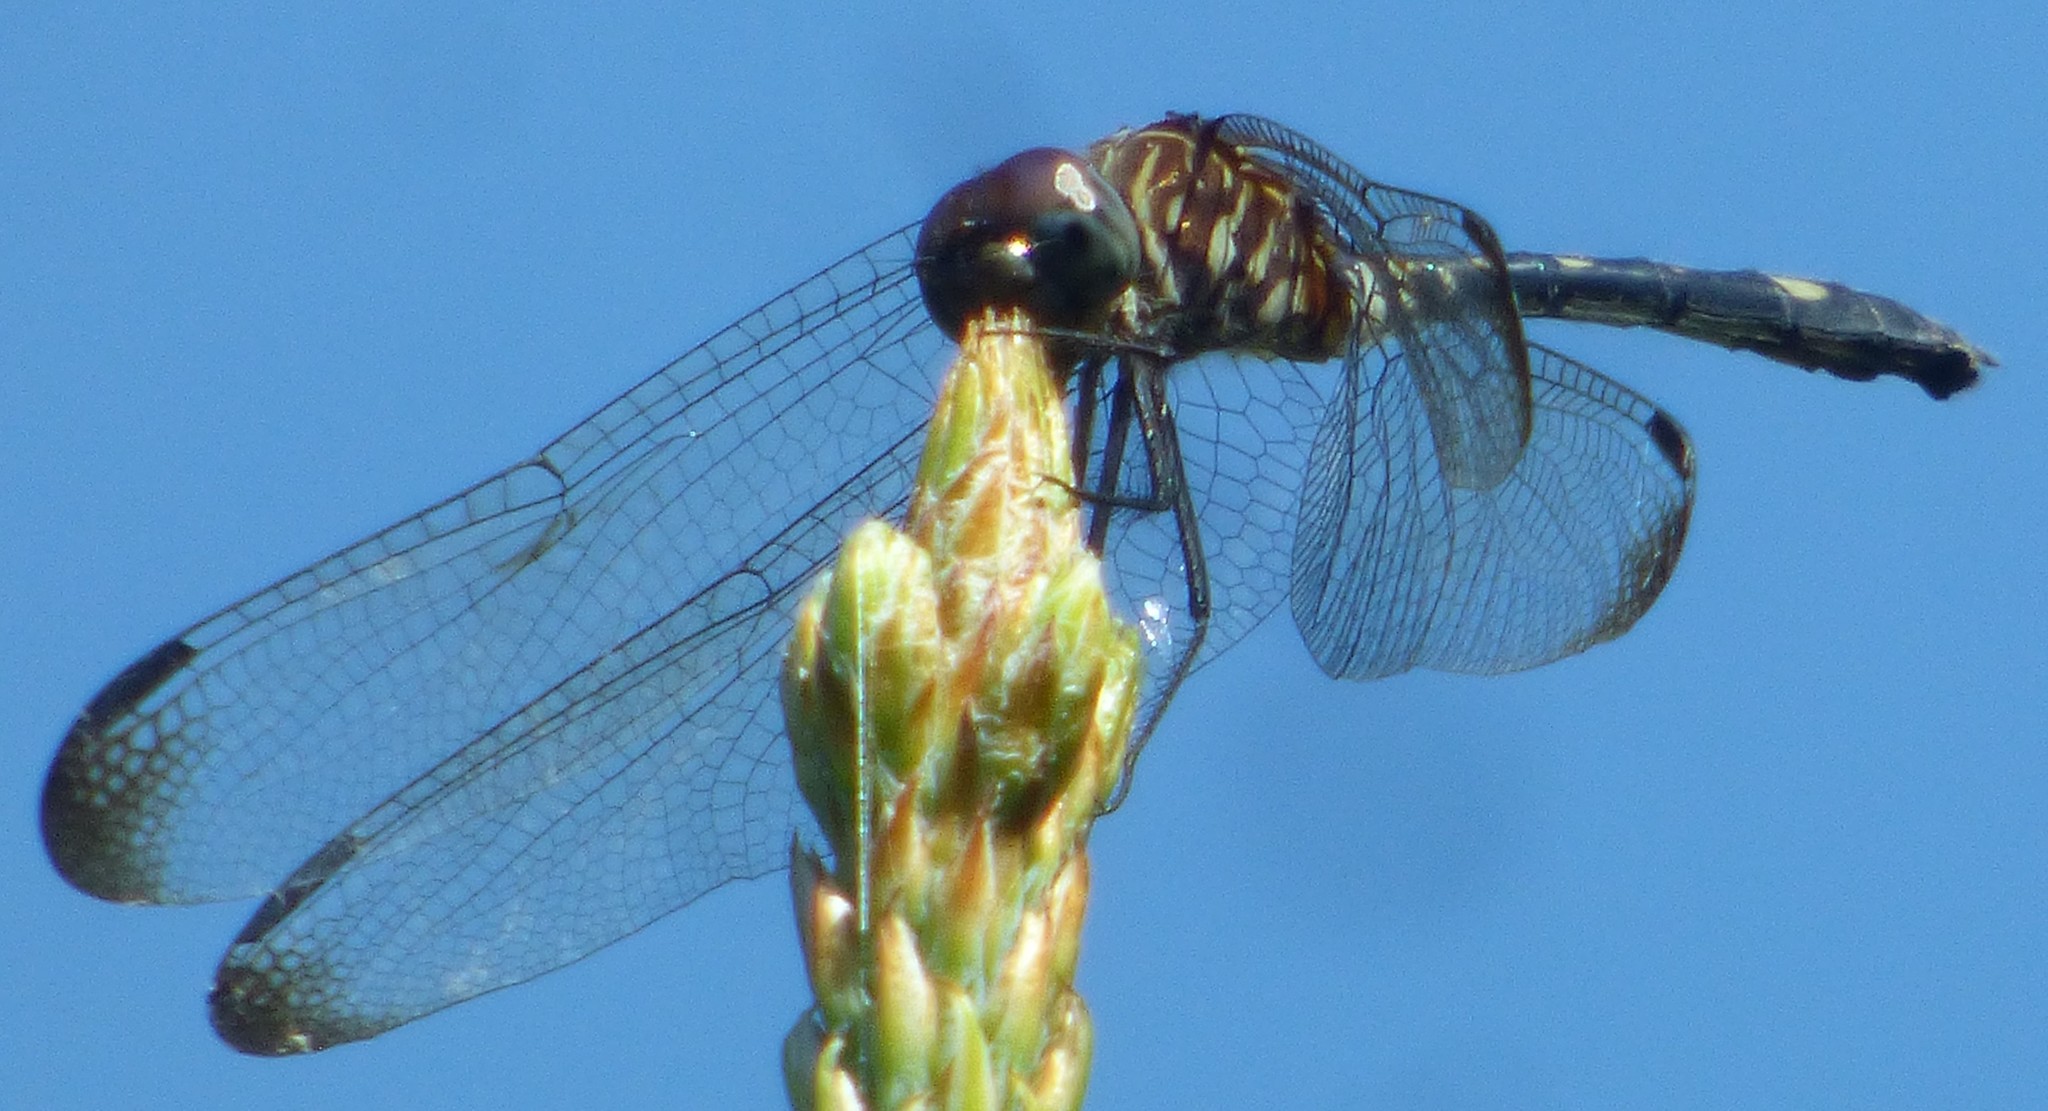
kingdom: Animalia
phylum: Arthropoda
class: Insecta
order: Odonata
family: Libellulidae
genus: Dythemis
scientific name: Dythemis velox
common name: Swift setwing
